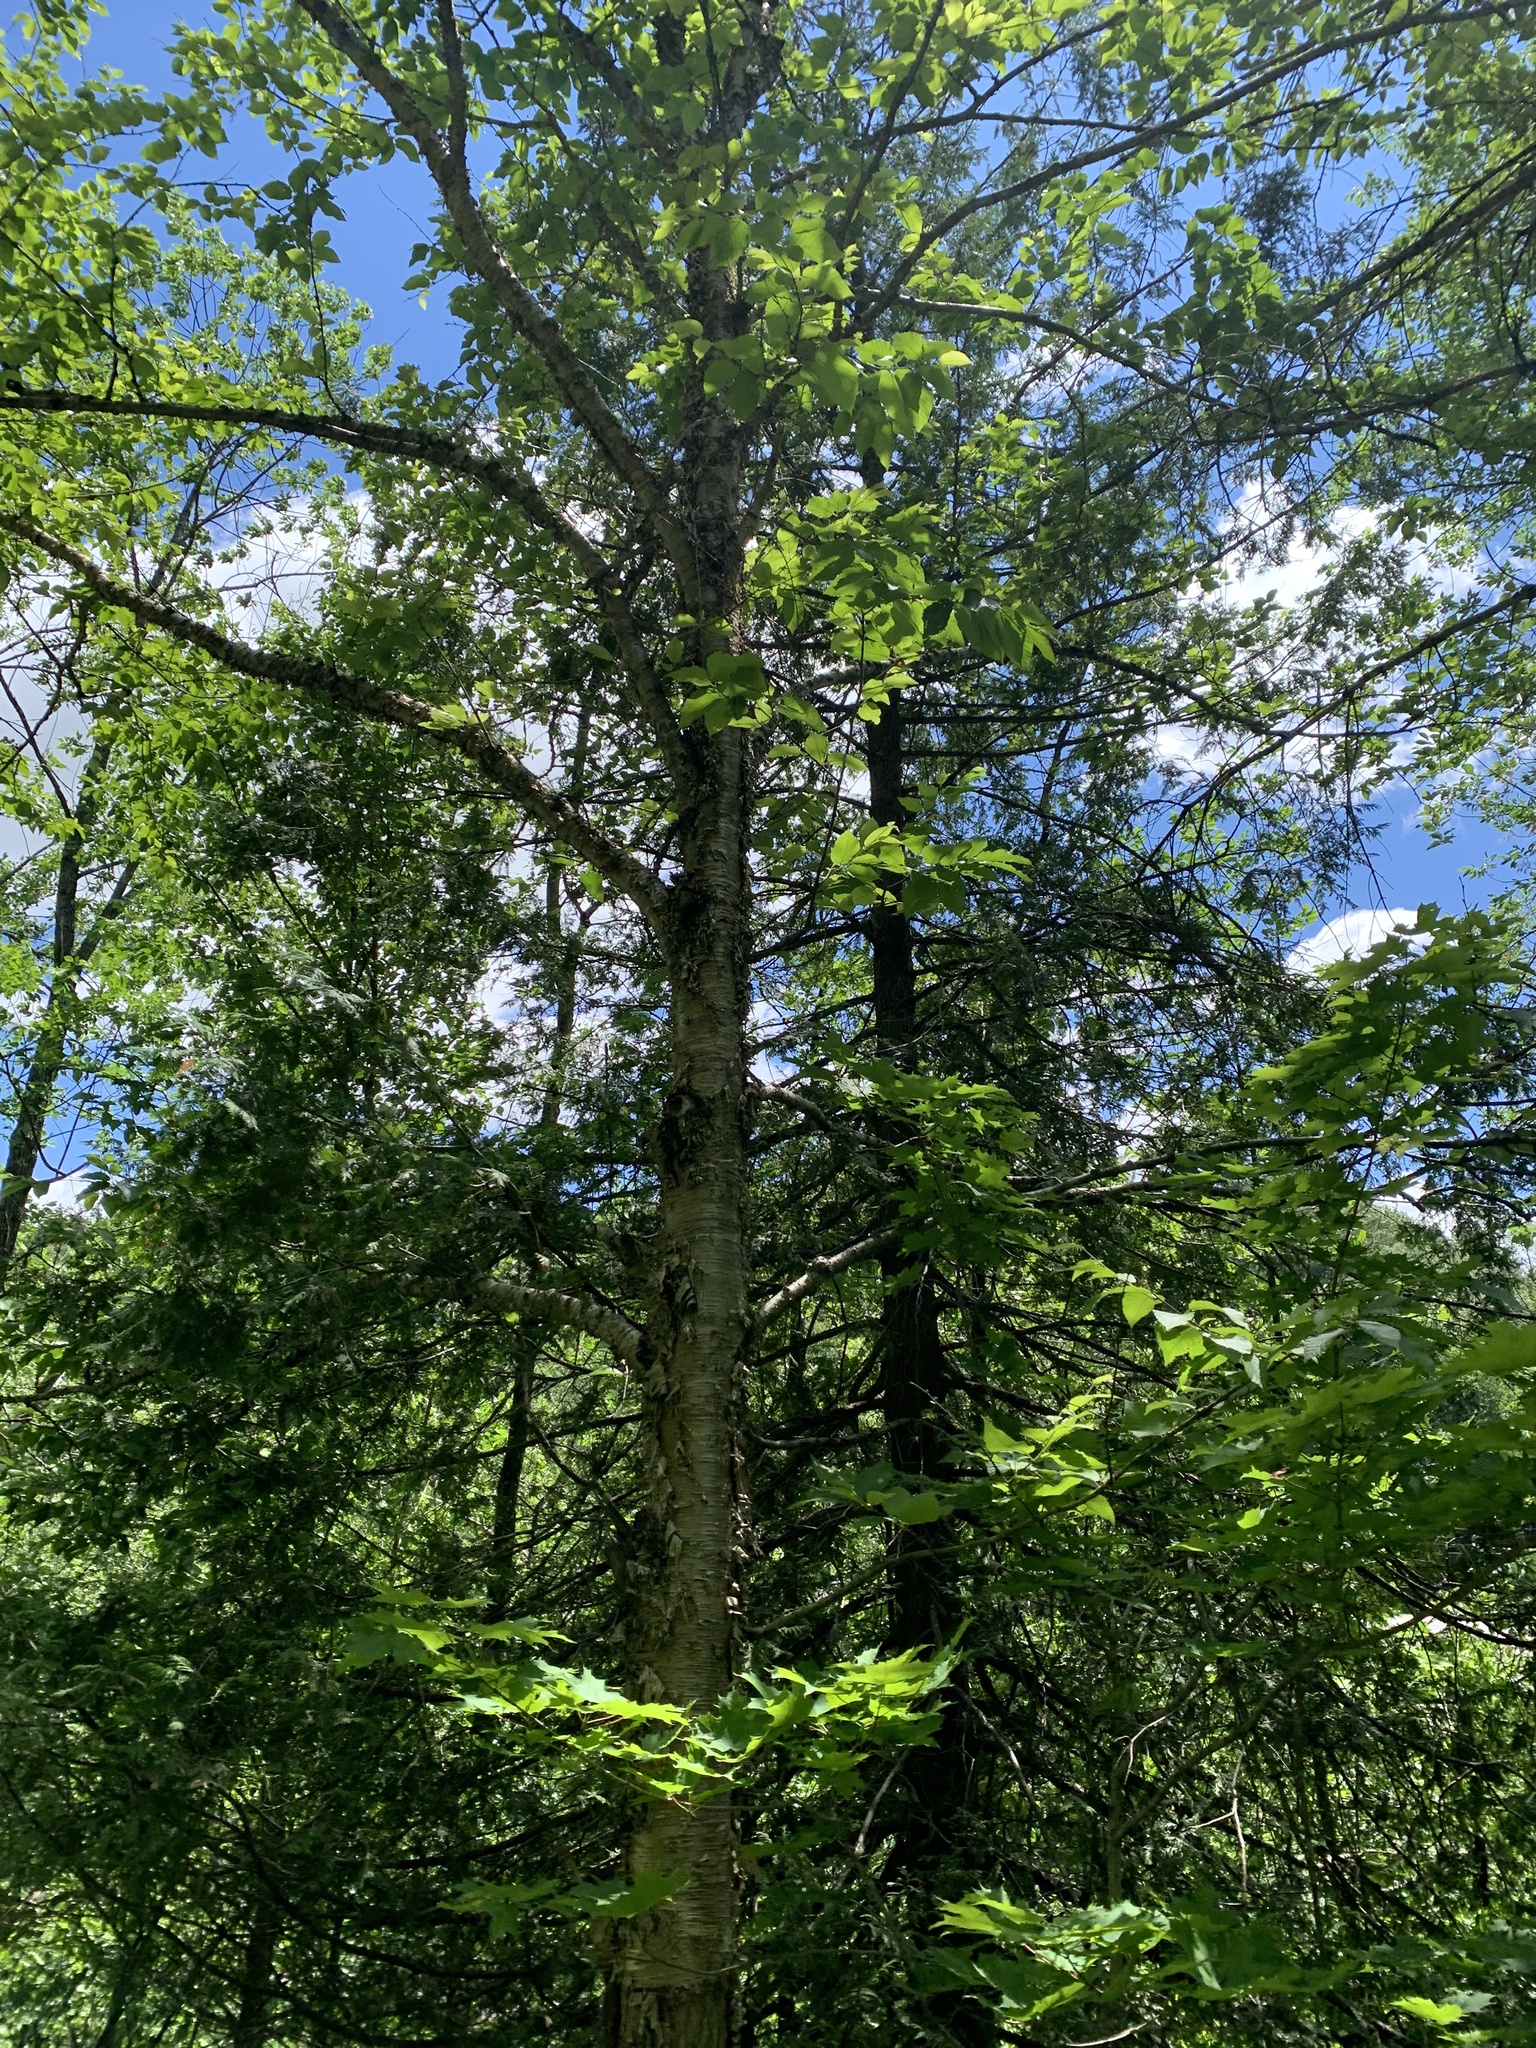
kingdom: Plantae
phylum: Tracheophyta
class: Magnoliopsida
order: Fagales
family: Betulaceae
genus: Betula
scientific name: Betula alleghaniensis
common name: Yellow birch
